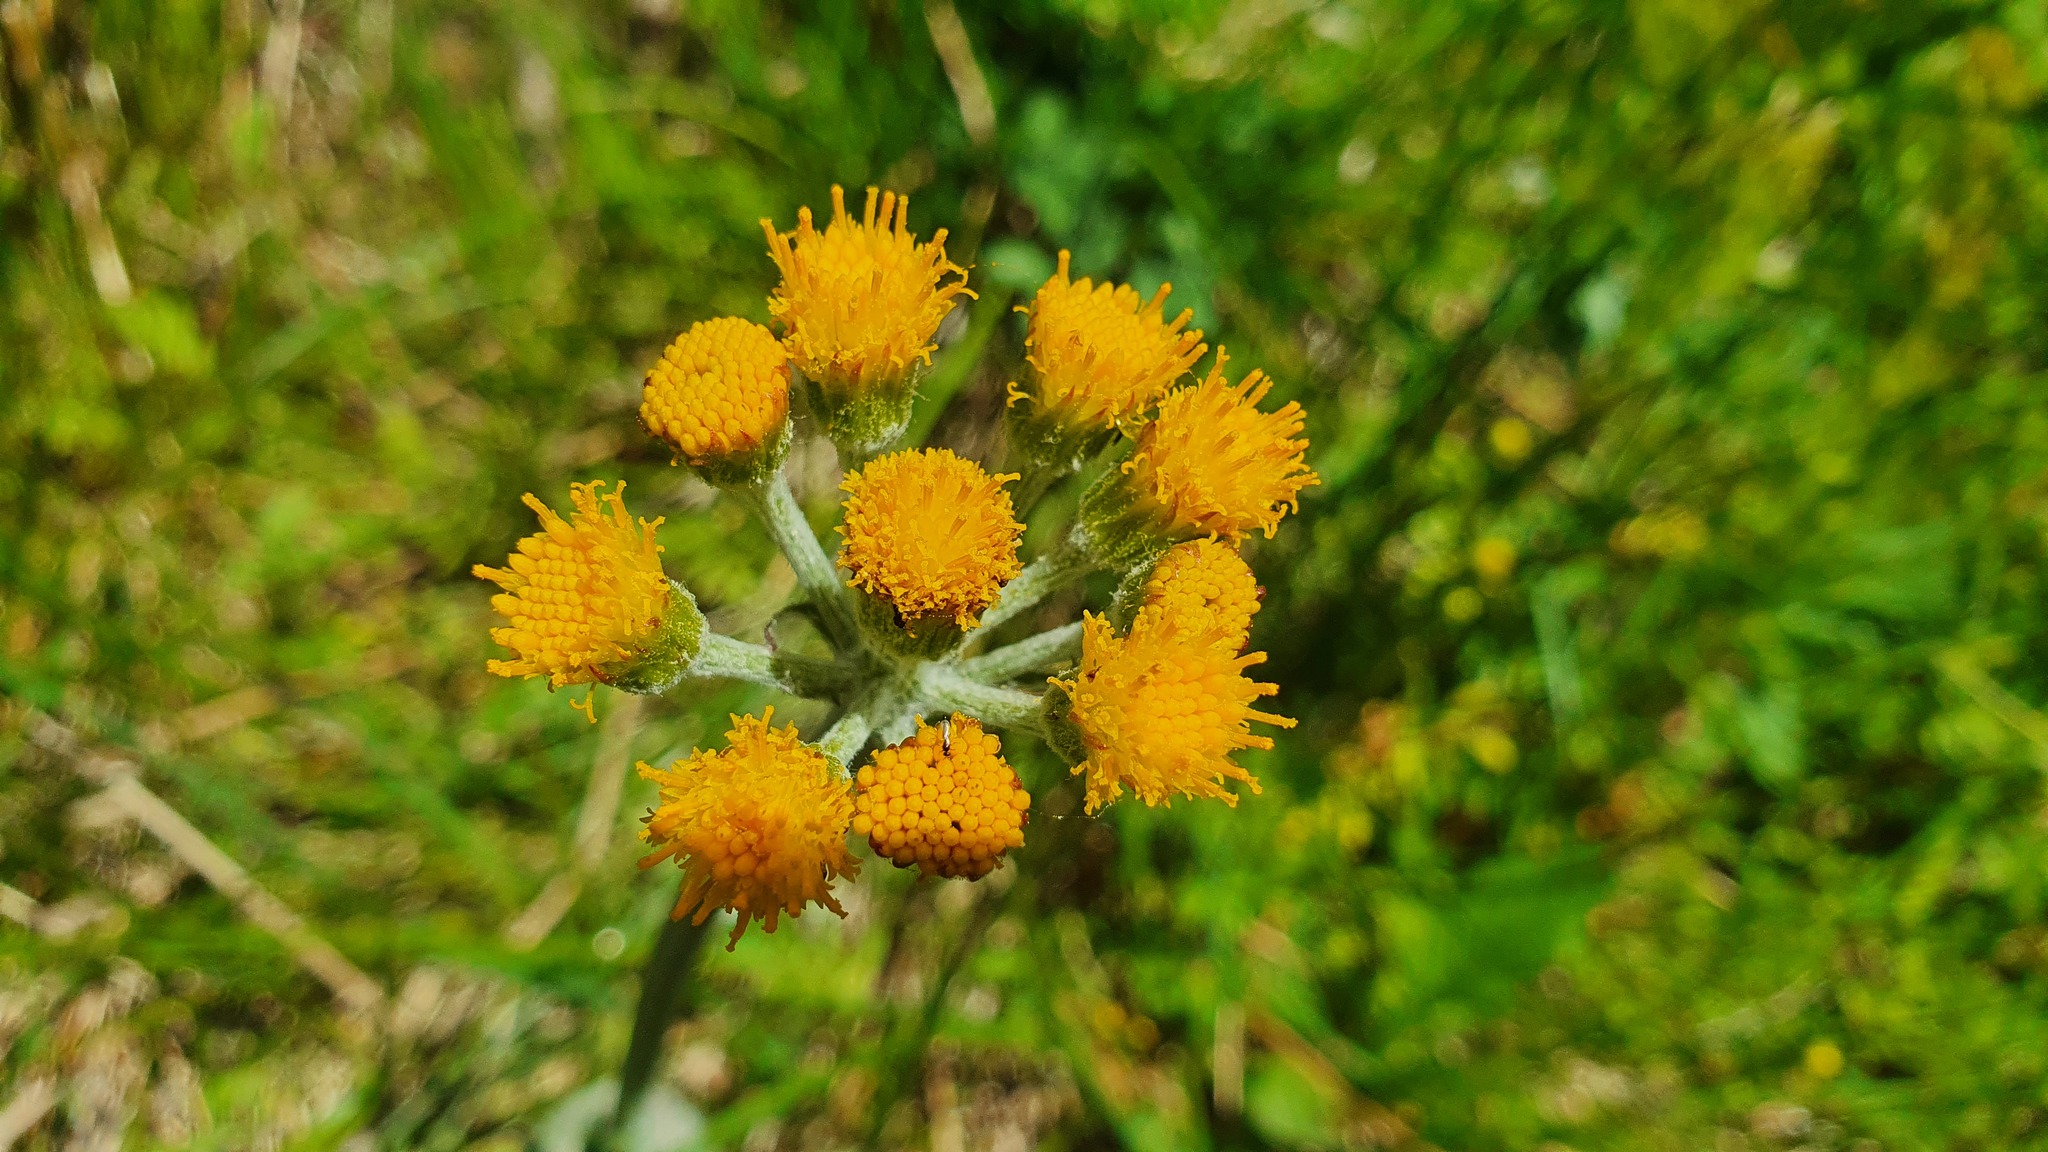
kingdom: Plantae
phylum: Tracheophyta
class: Magnoliopsida
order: Asterales
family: Asteraceae
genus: Tephroseris
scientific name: Tephroseris helenitis
